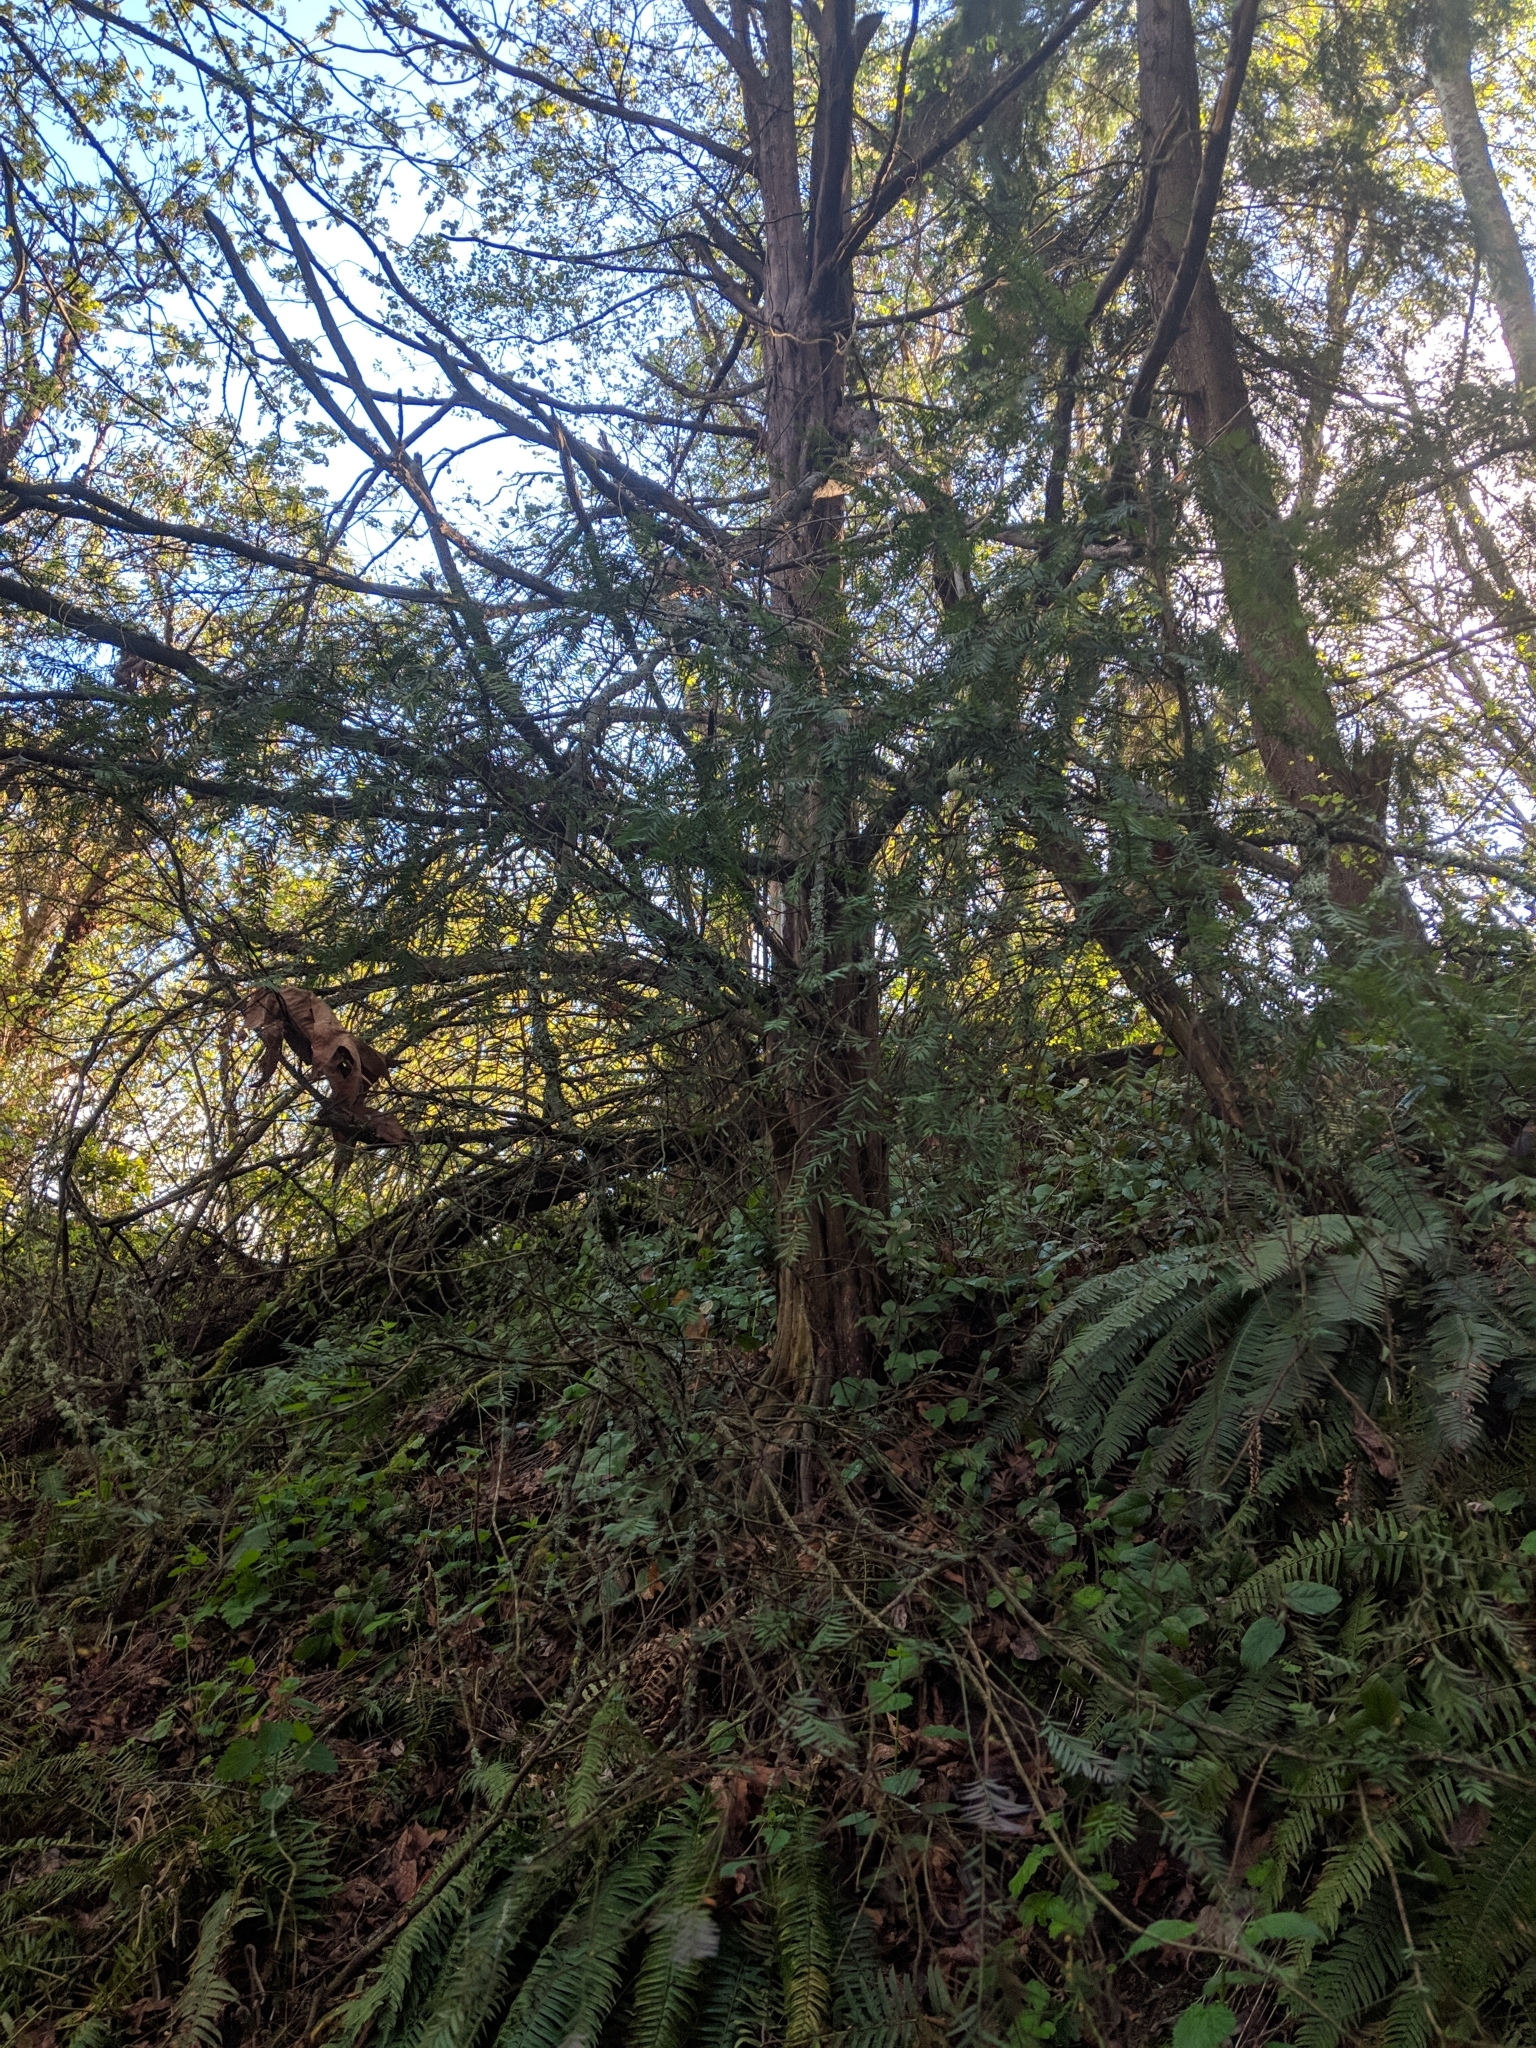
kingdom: Plantae
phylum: Tracheophyta
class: Pinopsida
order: Pinales
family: Taxaceae
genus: Taxus
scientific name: Taxus brevifolia
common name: Pacific yew
